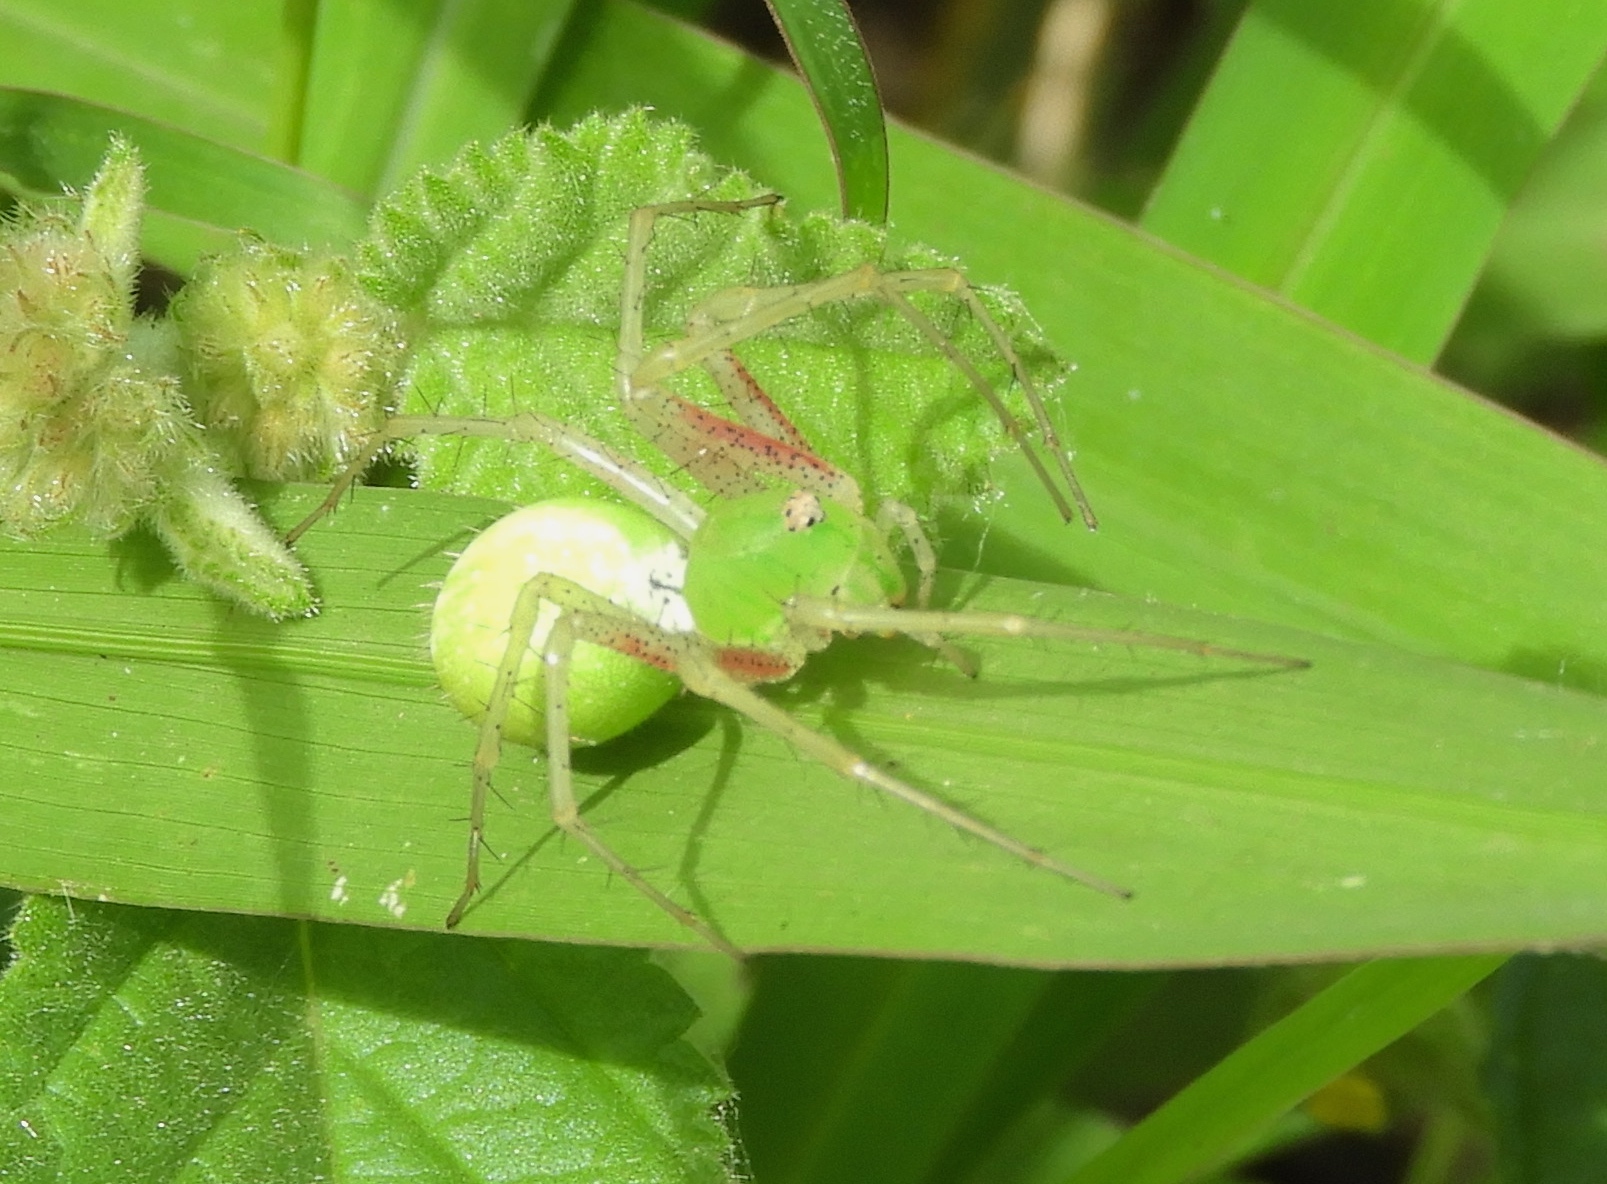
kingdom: Animalia
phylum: Arthropoda
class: Arachnida
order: Araneae
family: Oxyopidae
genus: Peucetia
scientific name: Peucetia longipalpis
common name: Lynx spiders
